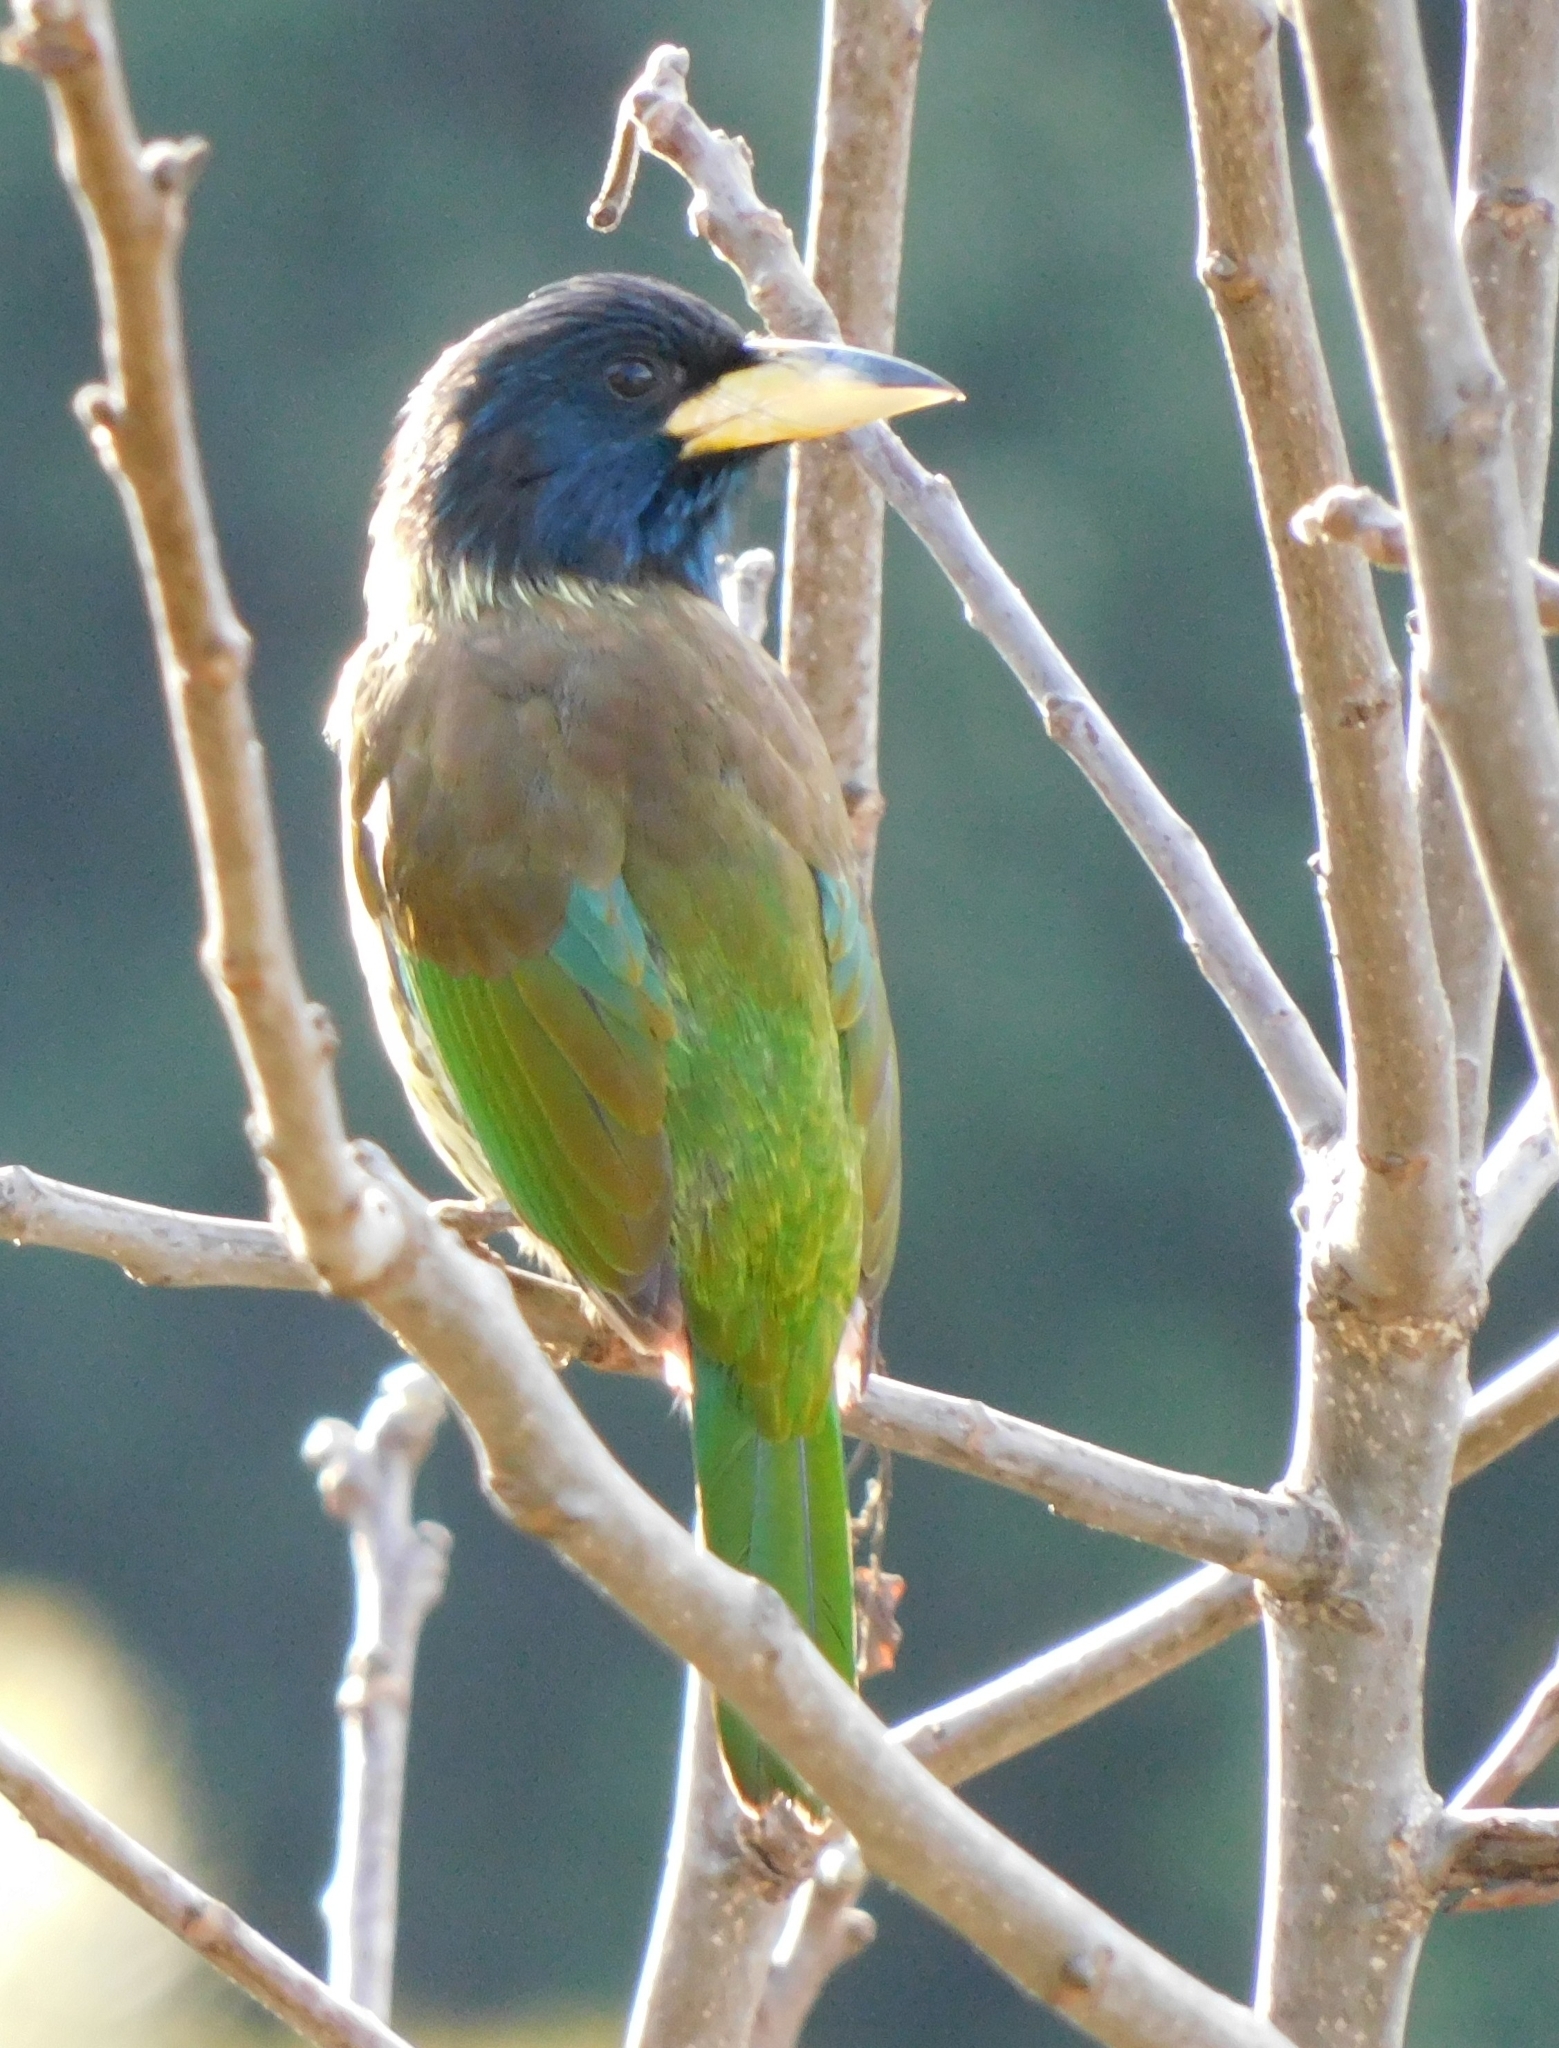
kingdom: Animalia
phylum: Chordata
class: Aves
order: Piciformes
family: Megalaimidae
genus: Psilopogon
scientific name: Psilopogon virens
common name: Great barbet
